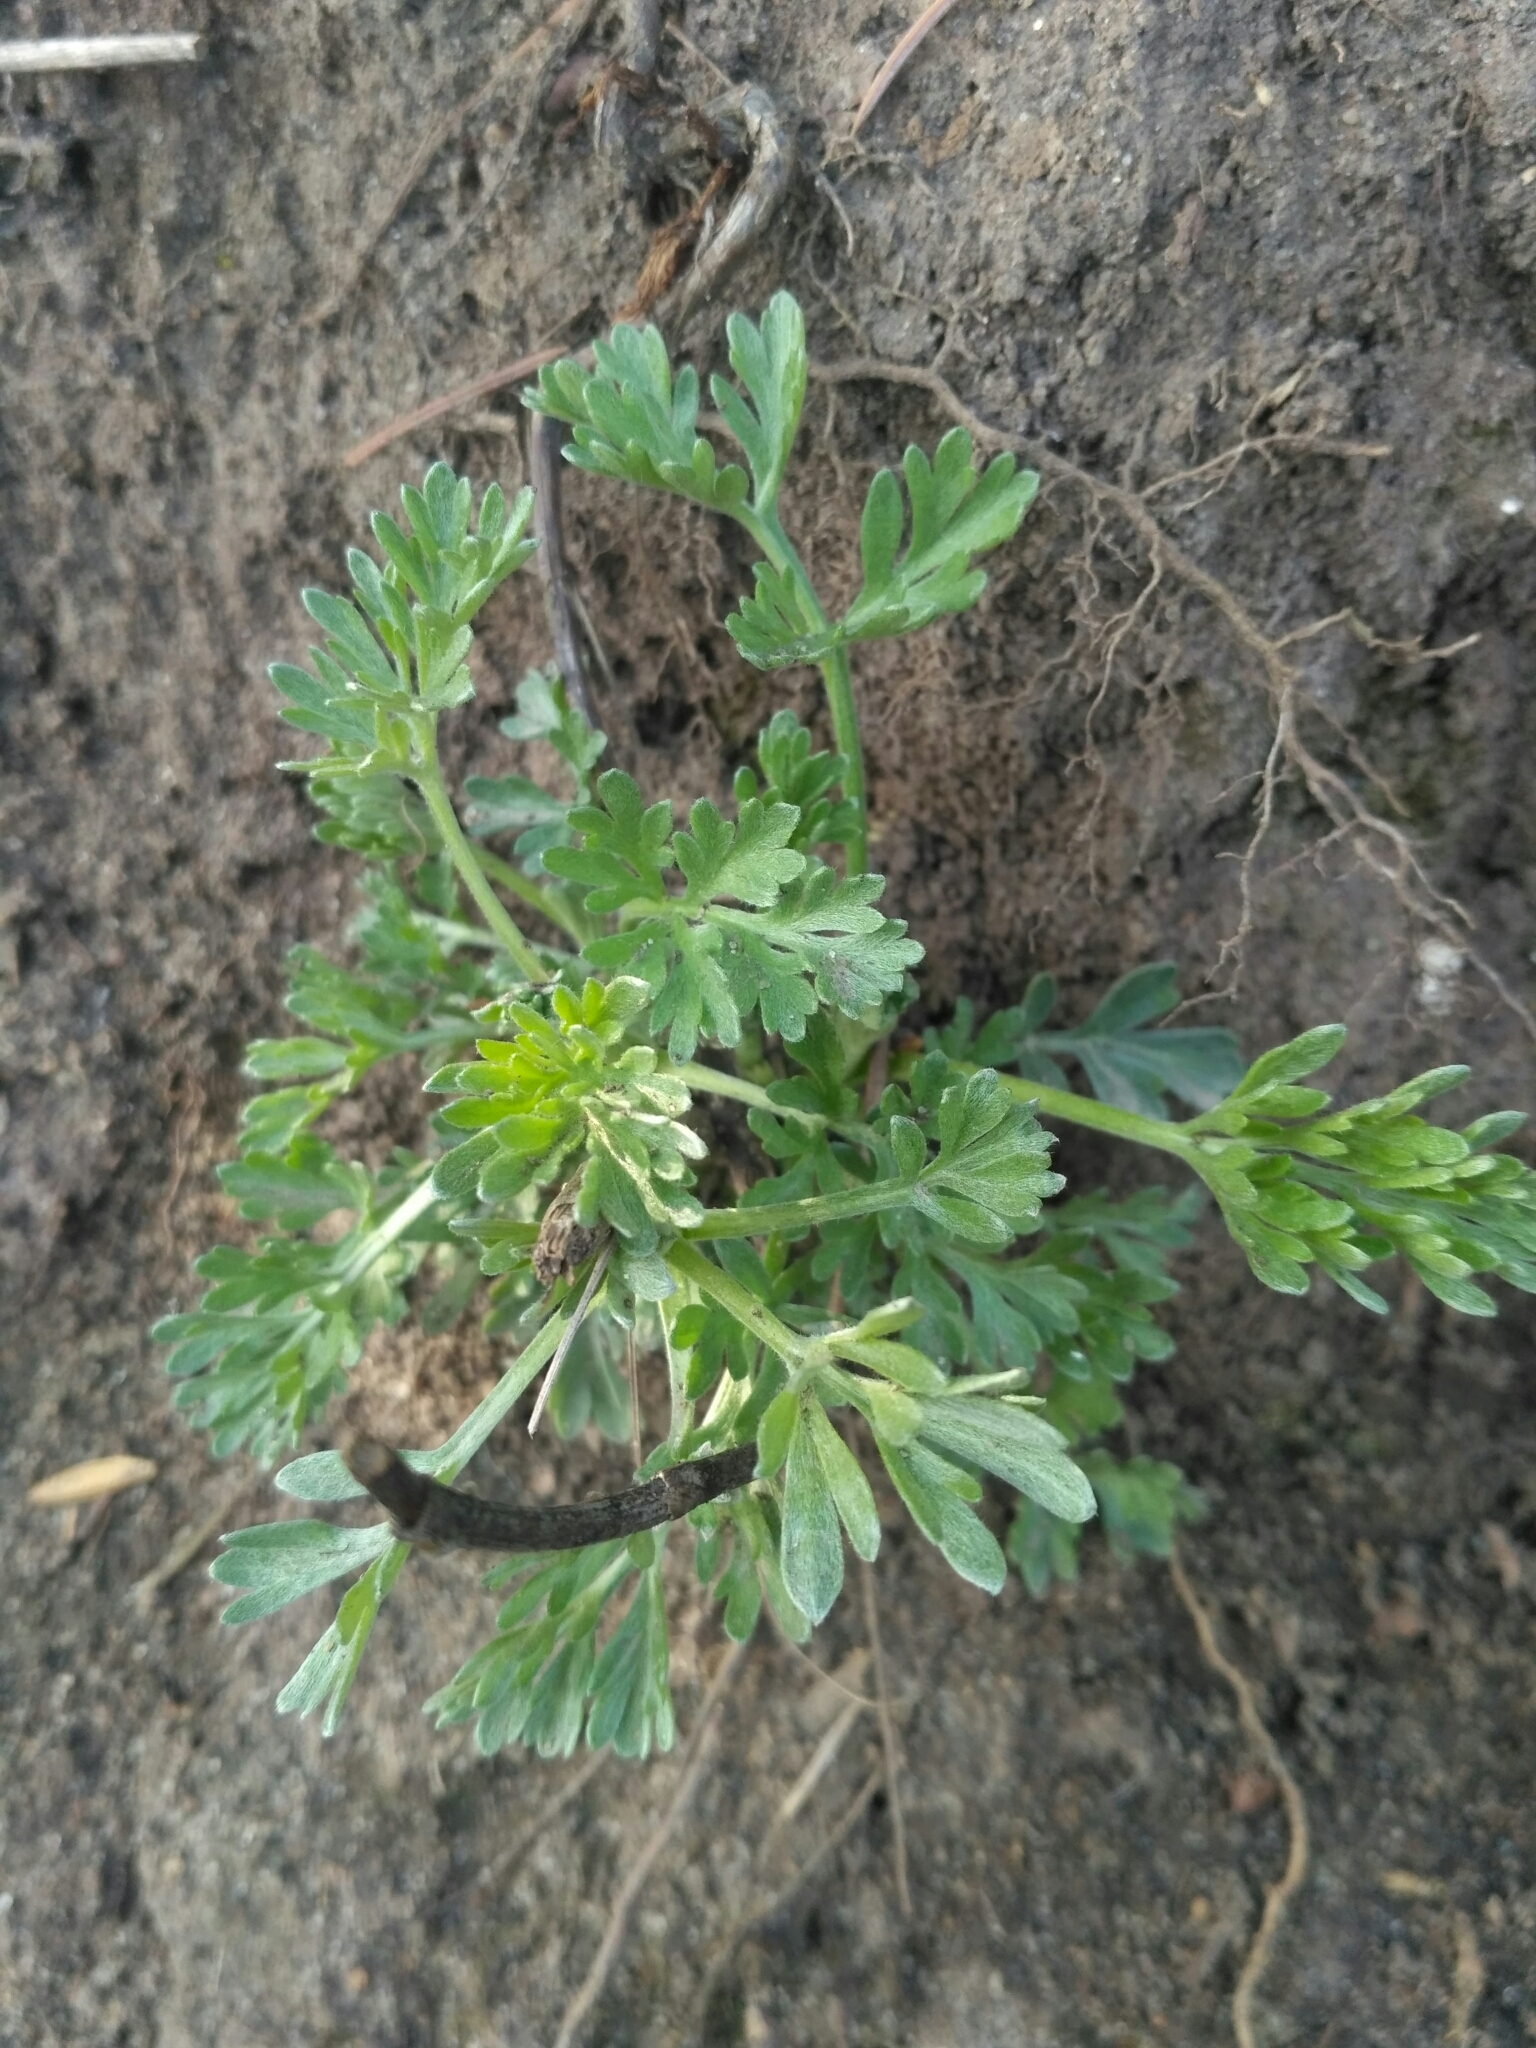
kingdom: Plantae
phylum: Tracheophyta
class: Magnoliopsida
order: Asterales
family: Asteraceae
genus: Artemisia
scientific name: Artemisia absinthium
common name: Wormwood
